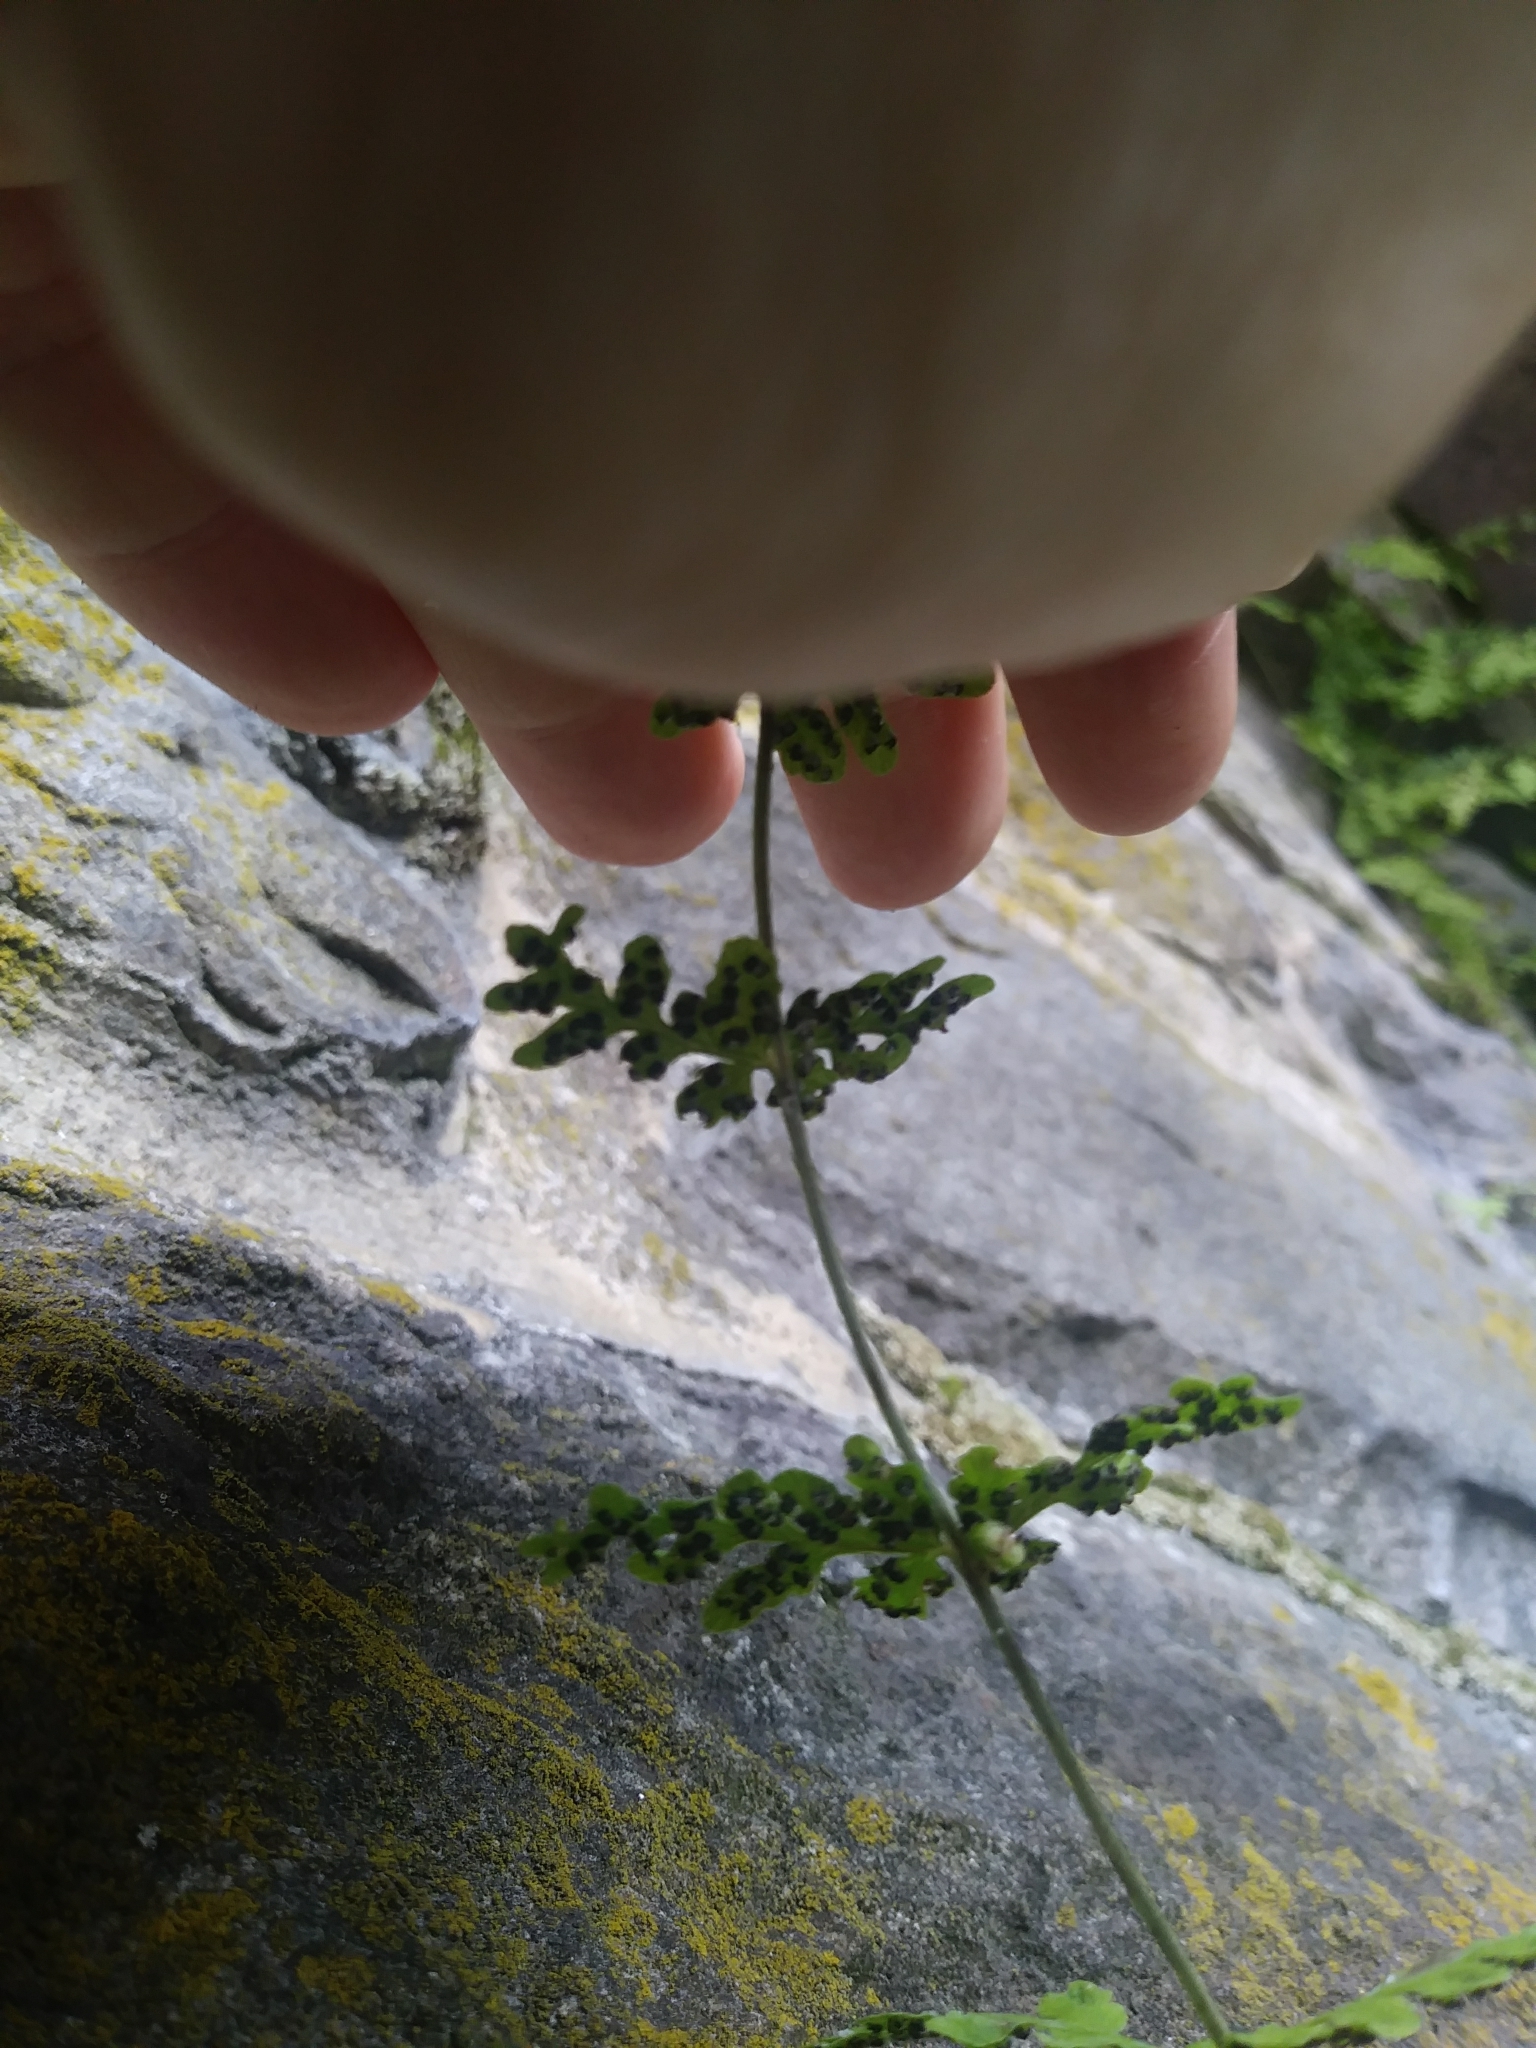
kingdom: Plantae
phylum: Tracheophyta
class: Polypodiopsida
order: Polypodiales
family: Cystopteridaceae
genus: Cystopteris
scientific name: Cystopteris tennesseensis
